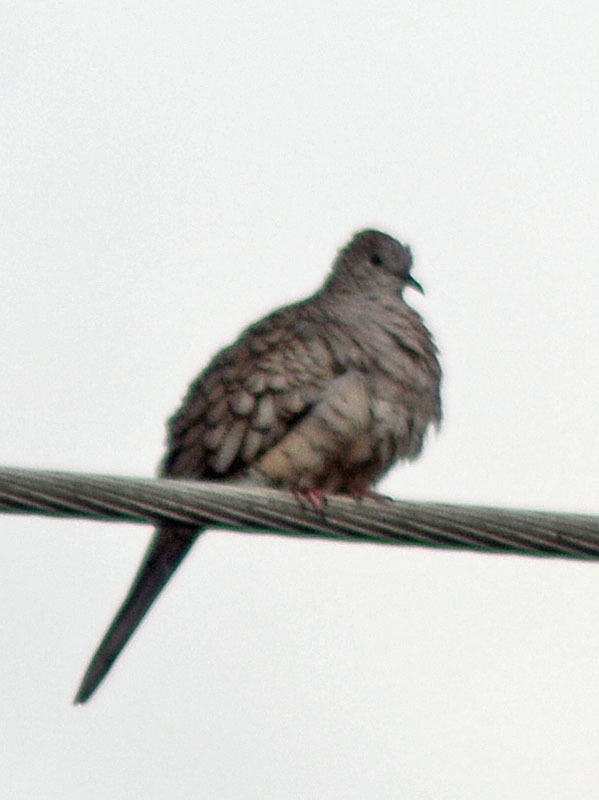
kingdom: Animalia
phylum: Chordata
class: Aves
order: Columbiformes
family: Columbidae
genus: Columbina
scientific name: Columbina inca
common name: Inca dove
